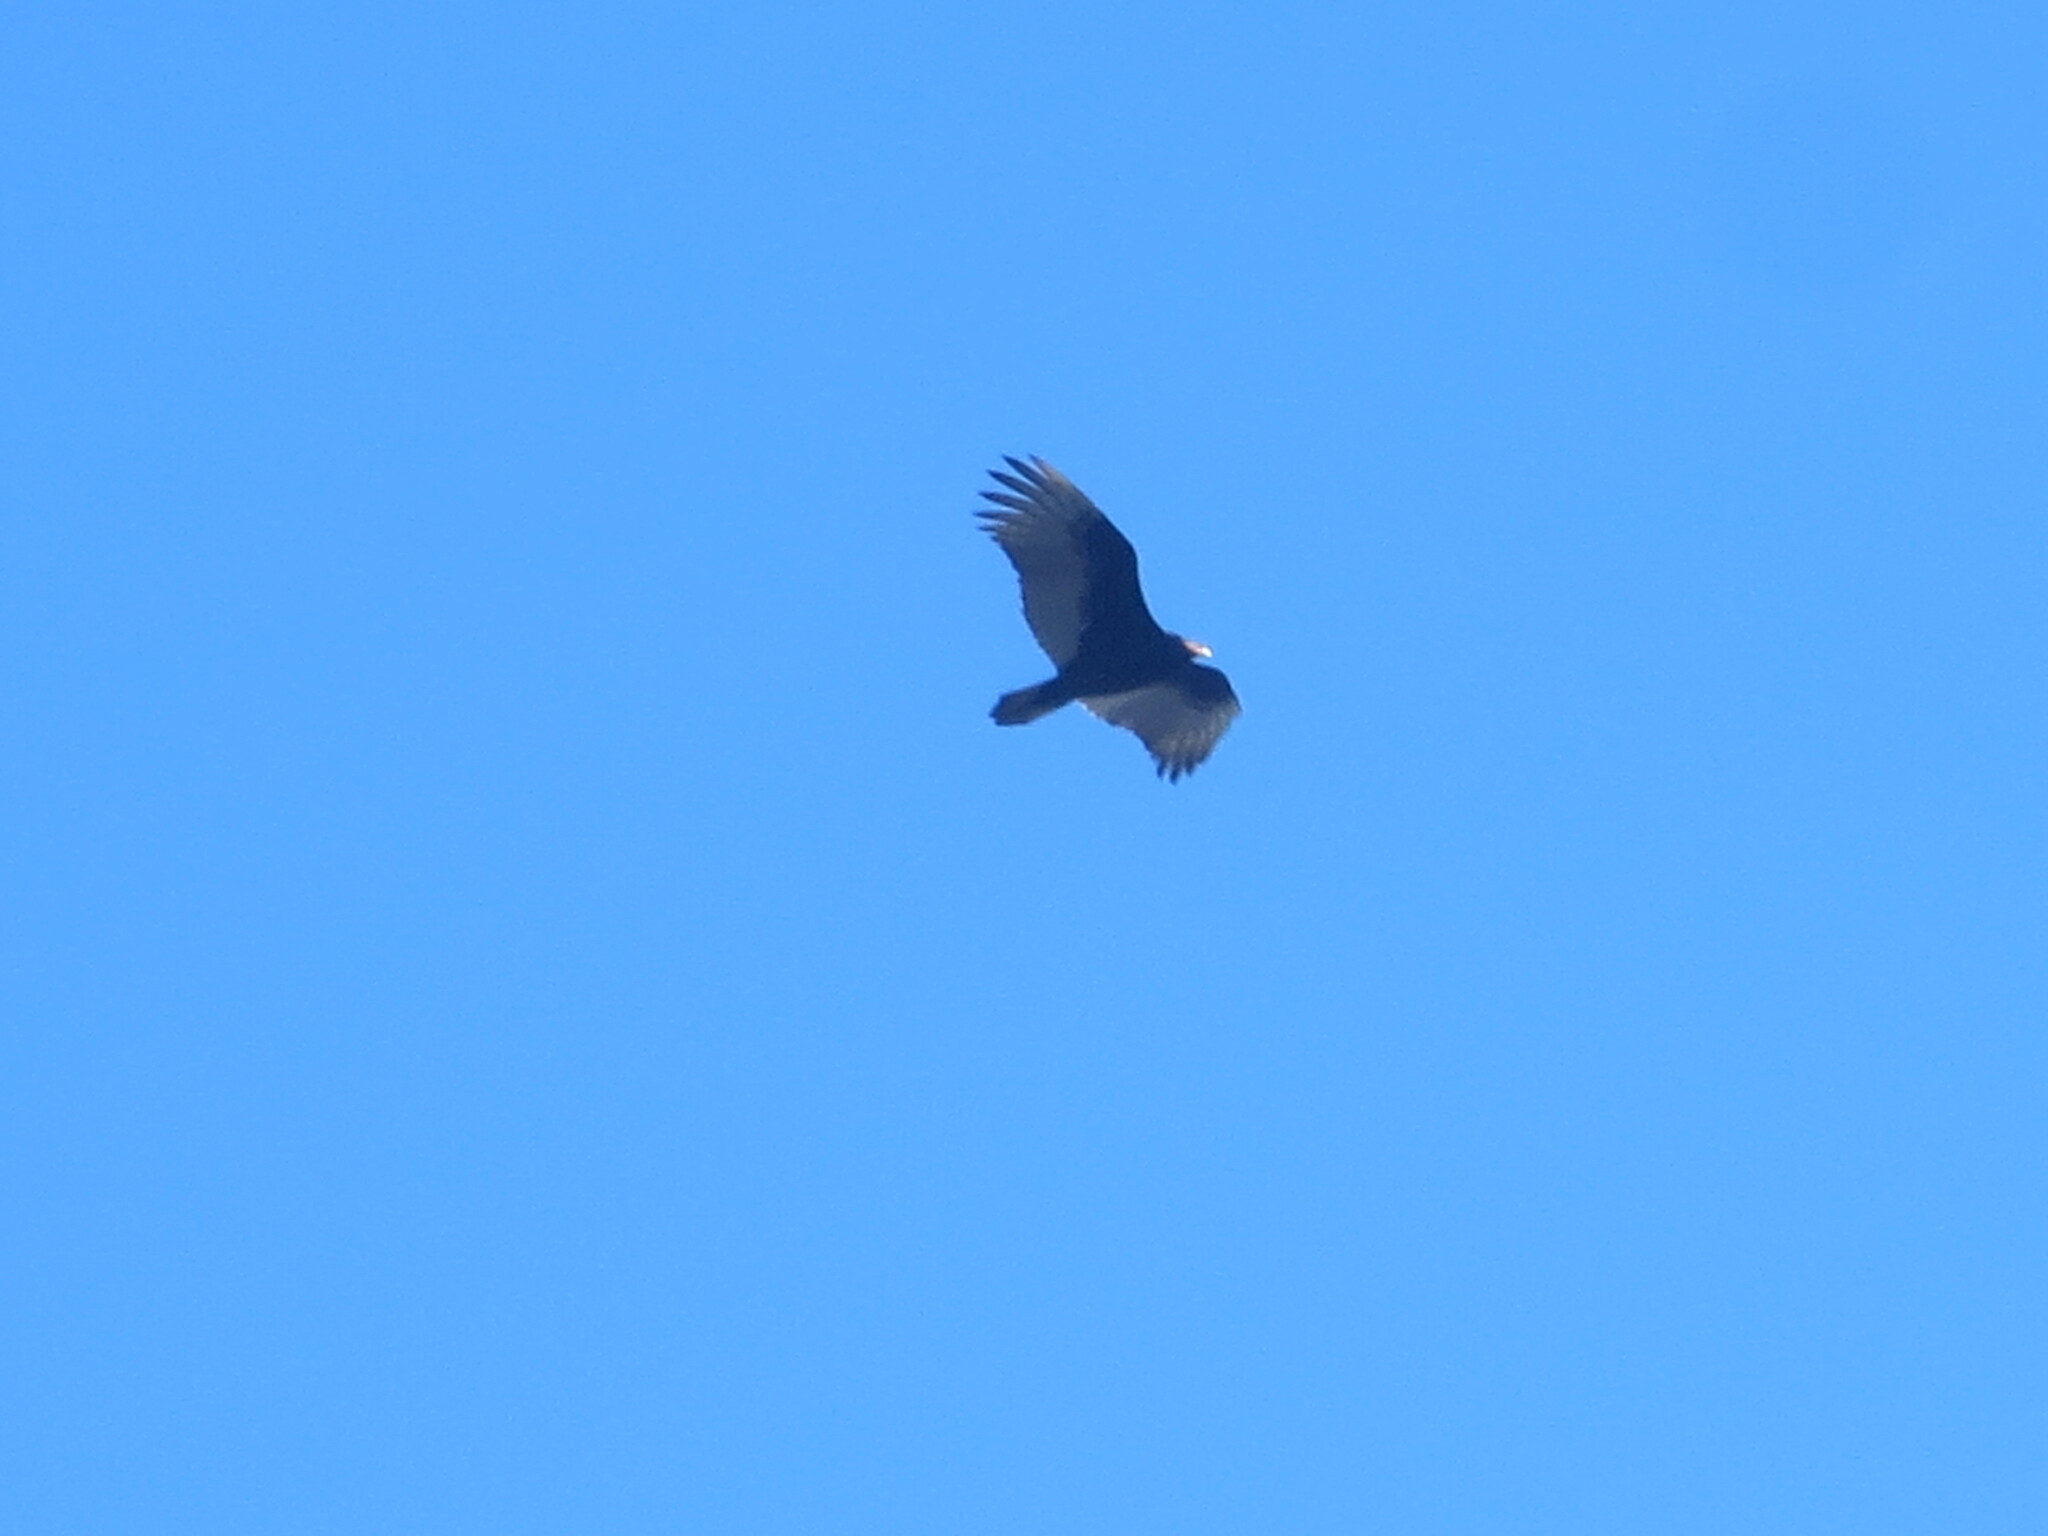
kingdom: Animalia
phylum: Chordata
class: Aves
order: Accipitriformes
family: Cathartidae
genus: Cathartes
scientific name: Cathartes aura
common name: Turkey vulture
